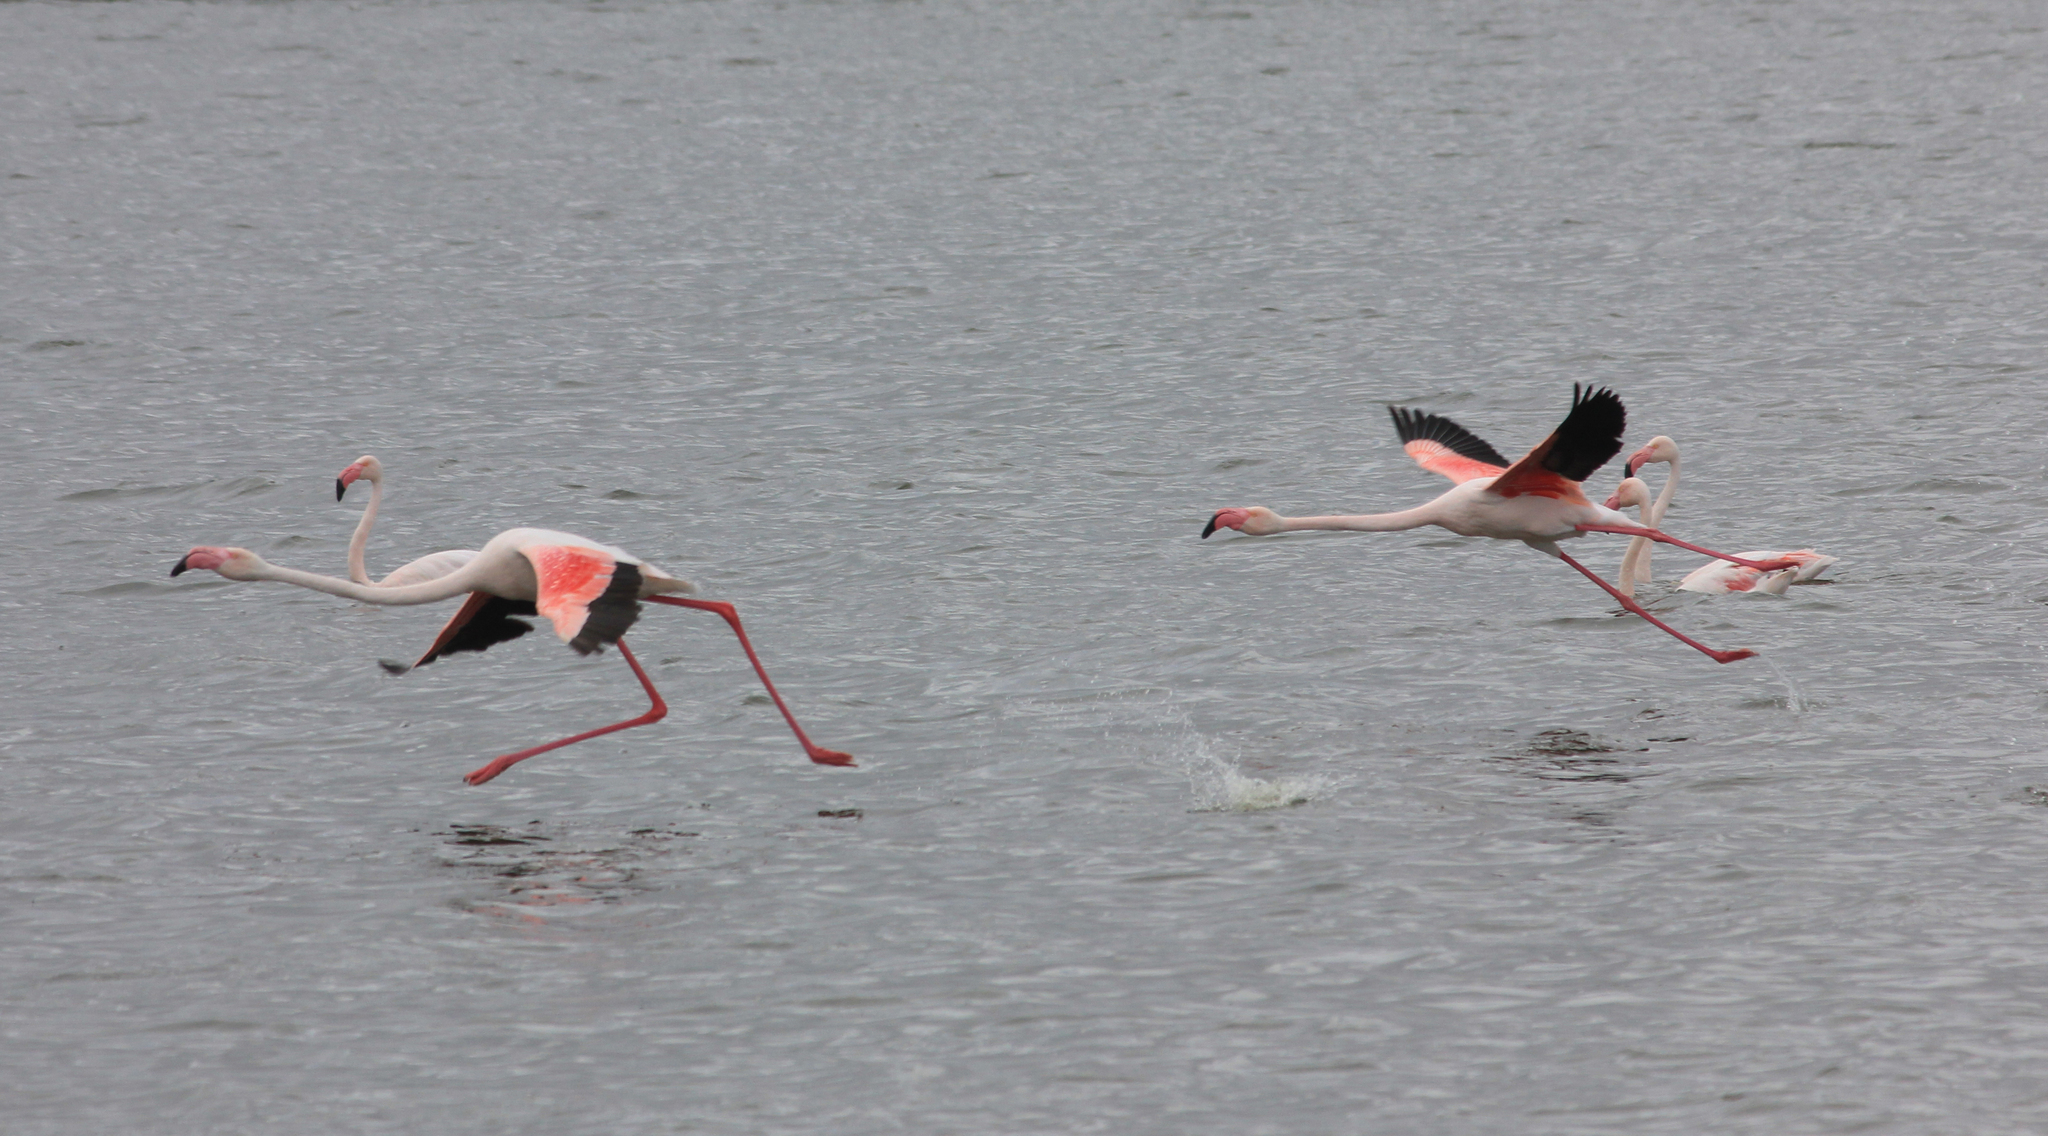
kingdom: Animalia
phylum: Chordata
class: Aves
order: Phoenicopteriformes
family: Phoenicopteridae
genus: Phoenicopterus
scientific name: Phoenicopterus roseus
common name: Greater flamingo
